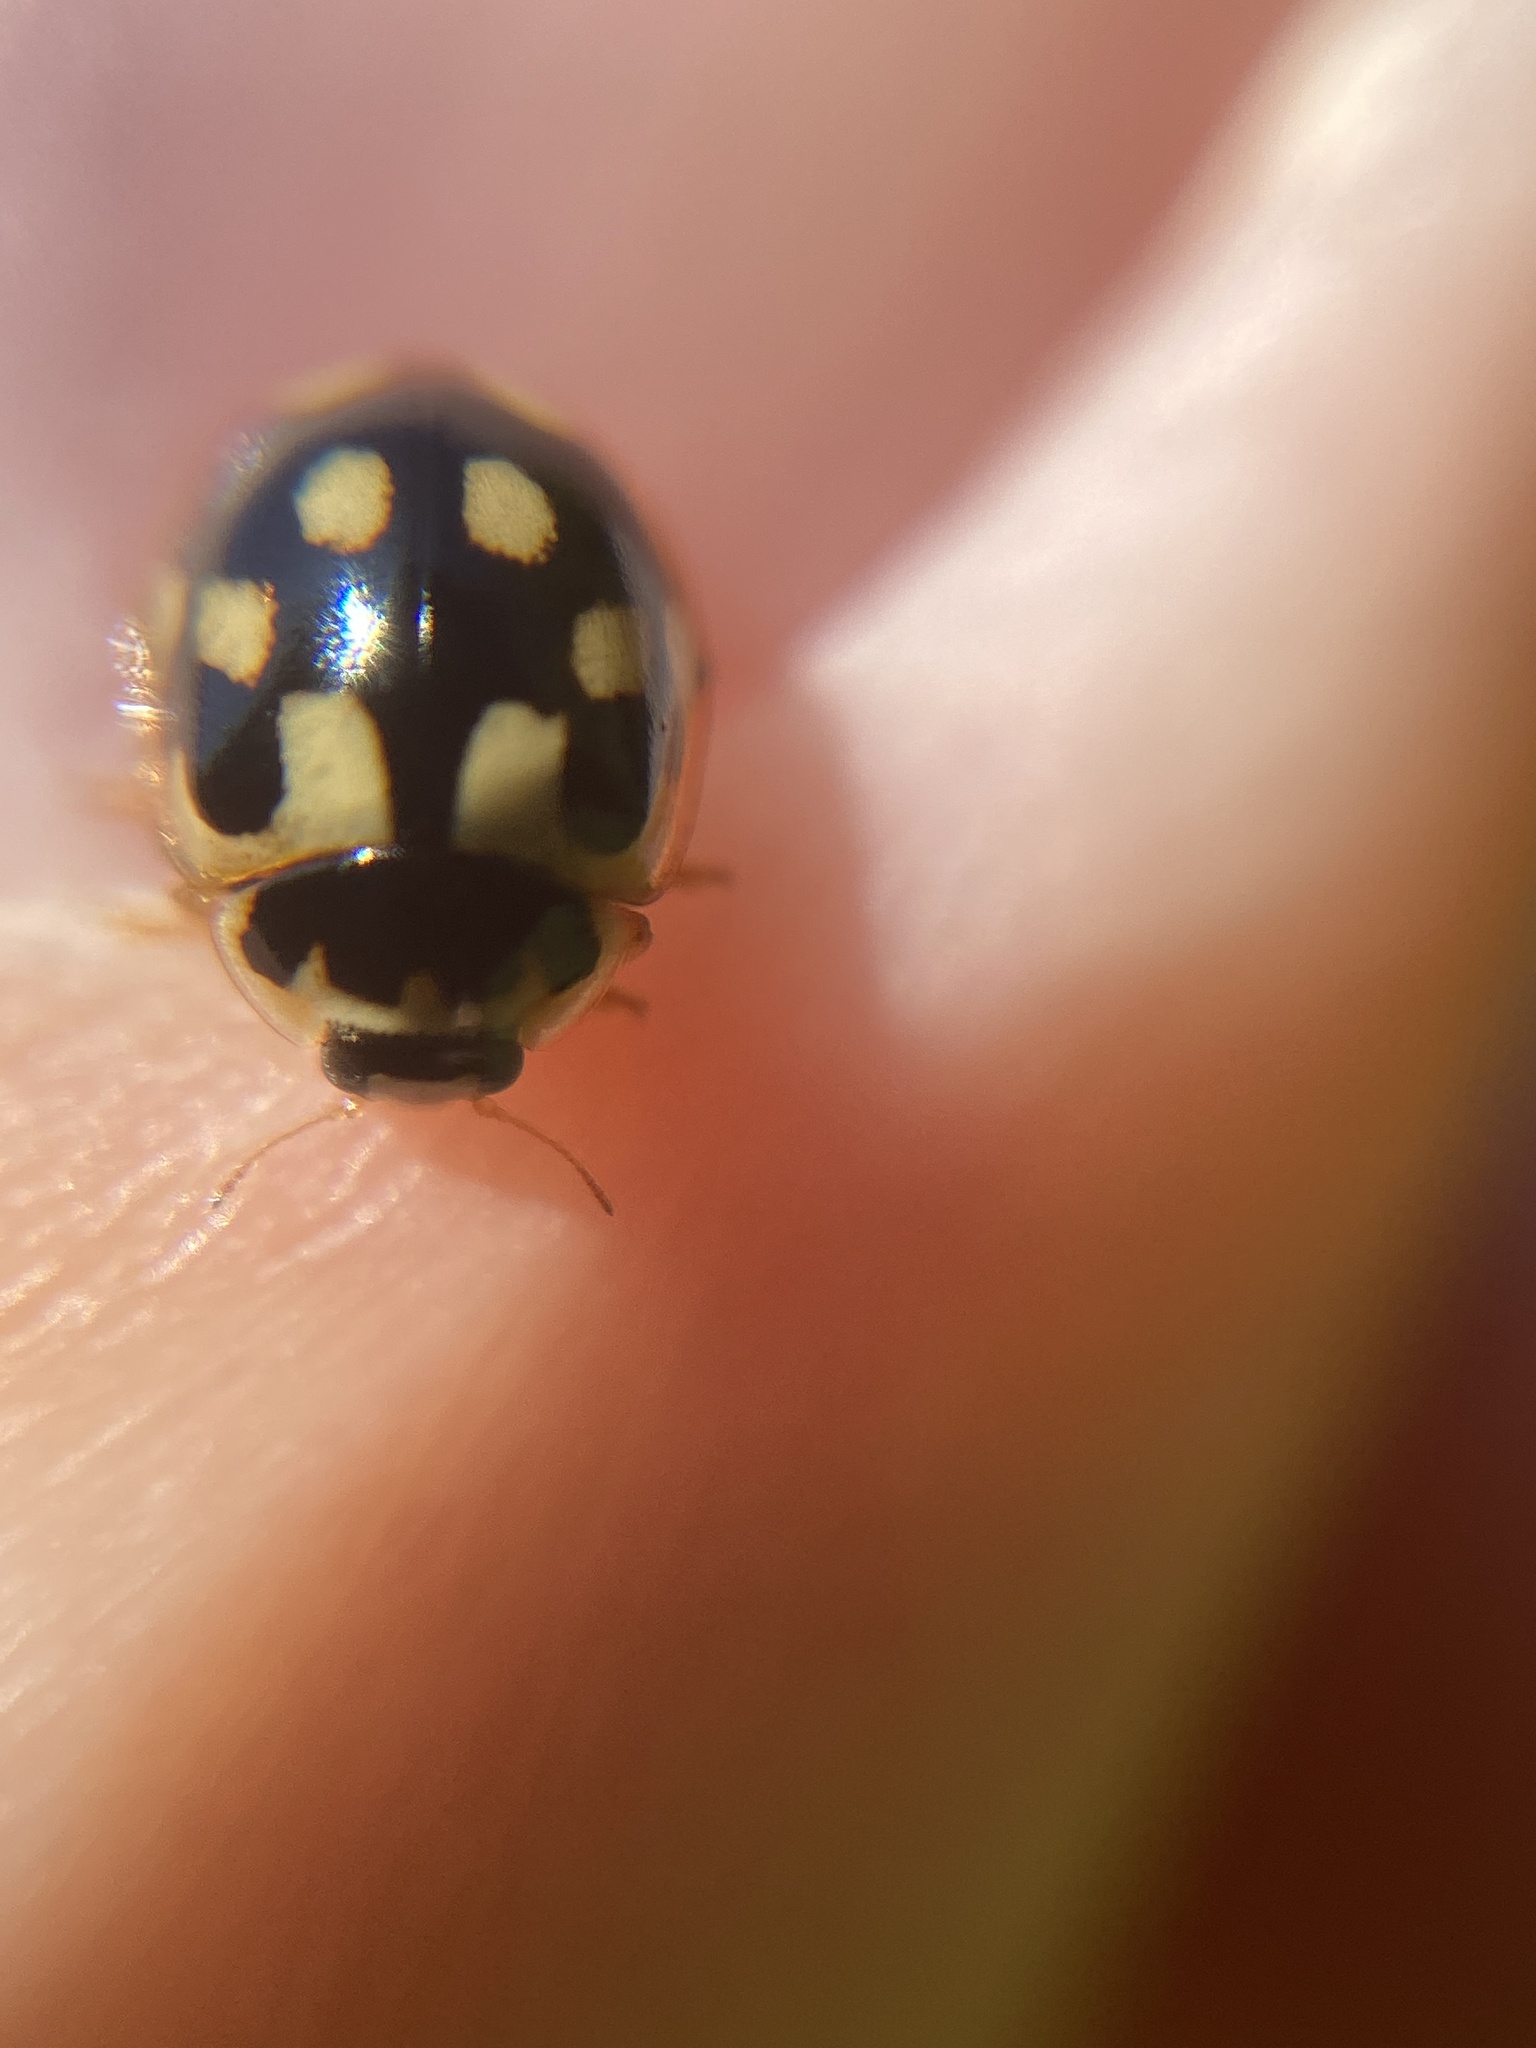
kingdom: Animalia
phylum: Arthropoda
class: Insecta
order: Coleoptera
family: Coccinellidae
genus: Propylaea
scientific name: Propylaea quatuordecimpunctata
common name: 14-spotted ladybird beetle
